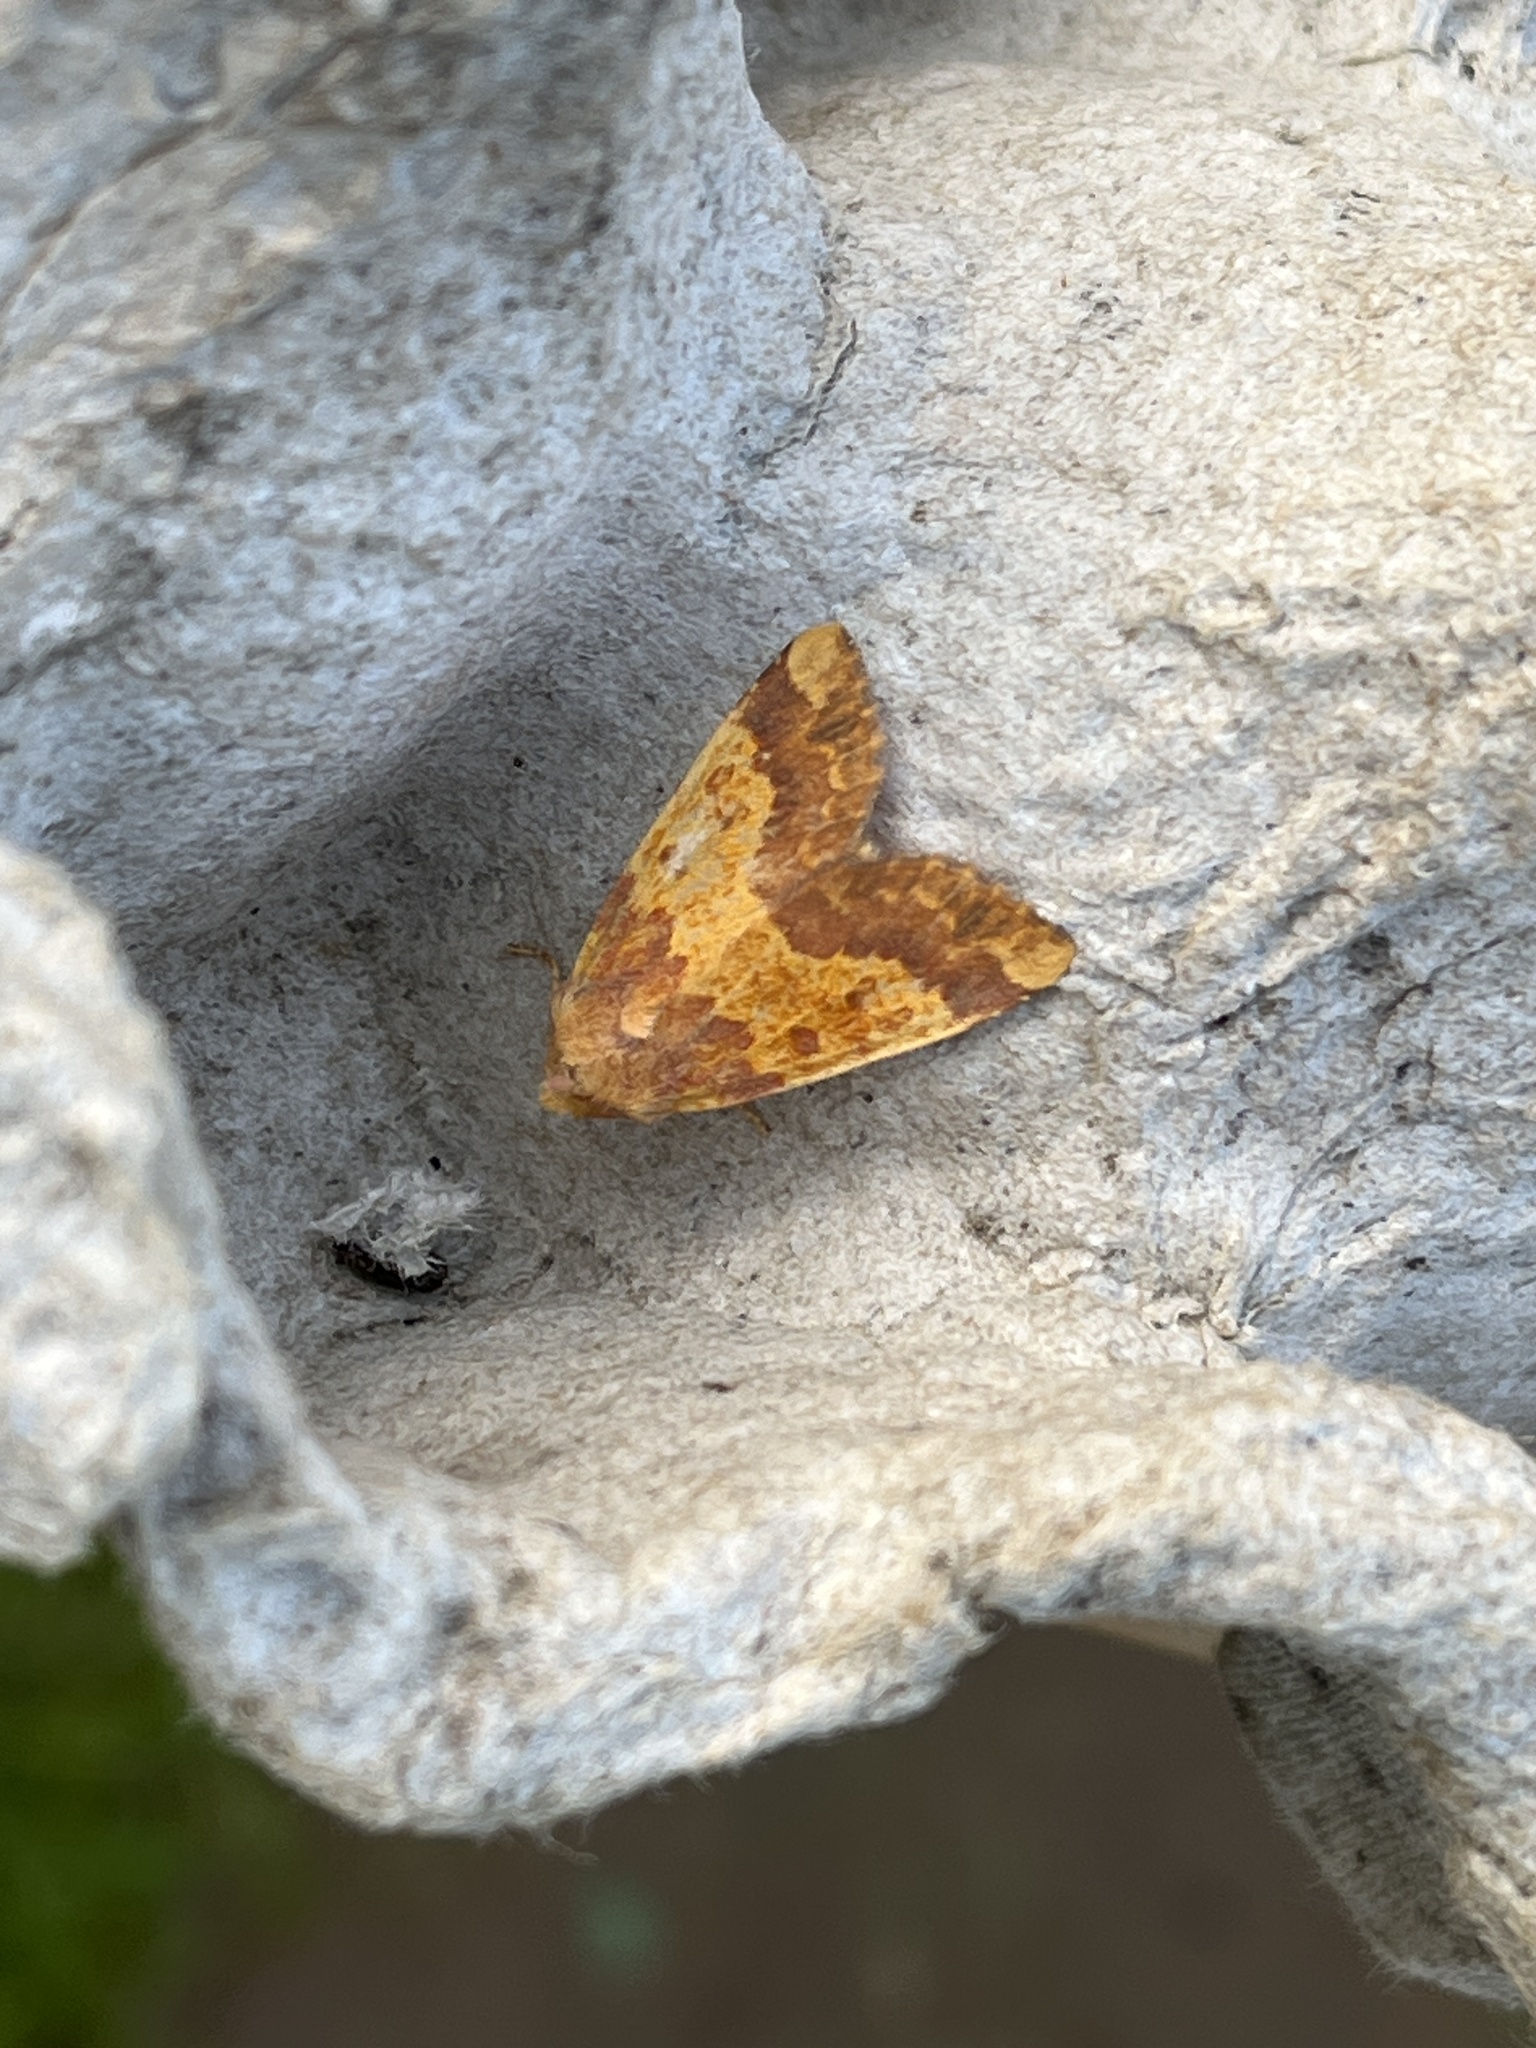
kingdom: Animalia
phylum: Arthropoda
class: Insecta
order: Lepidoptera
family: Noctuidae
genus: Tiliacea
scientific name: Tiliacea aurago
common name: Barred sallow
